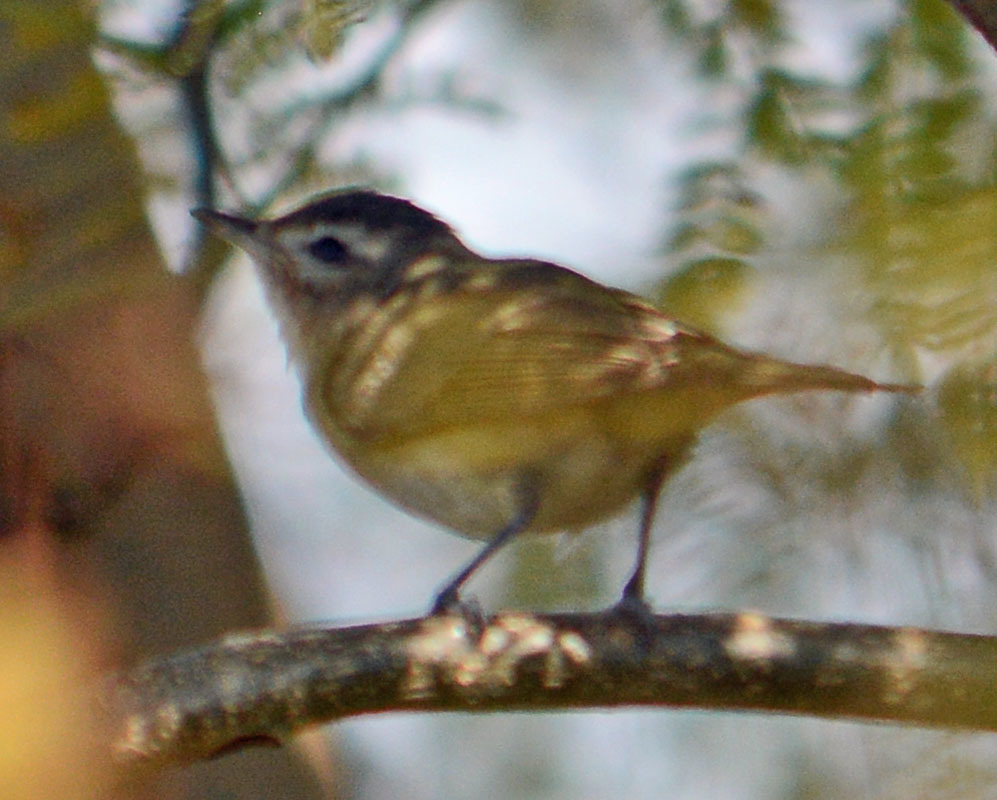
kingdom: Animalia
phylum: Chordata
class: Aves
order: Passeriformes
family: Vireonidae
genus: Vireo
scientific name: Vireo gilvus
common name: Warbling vireo
